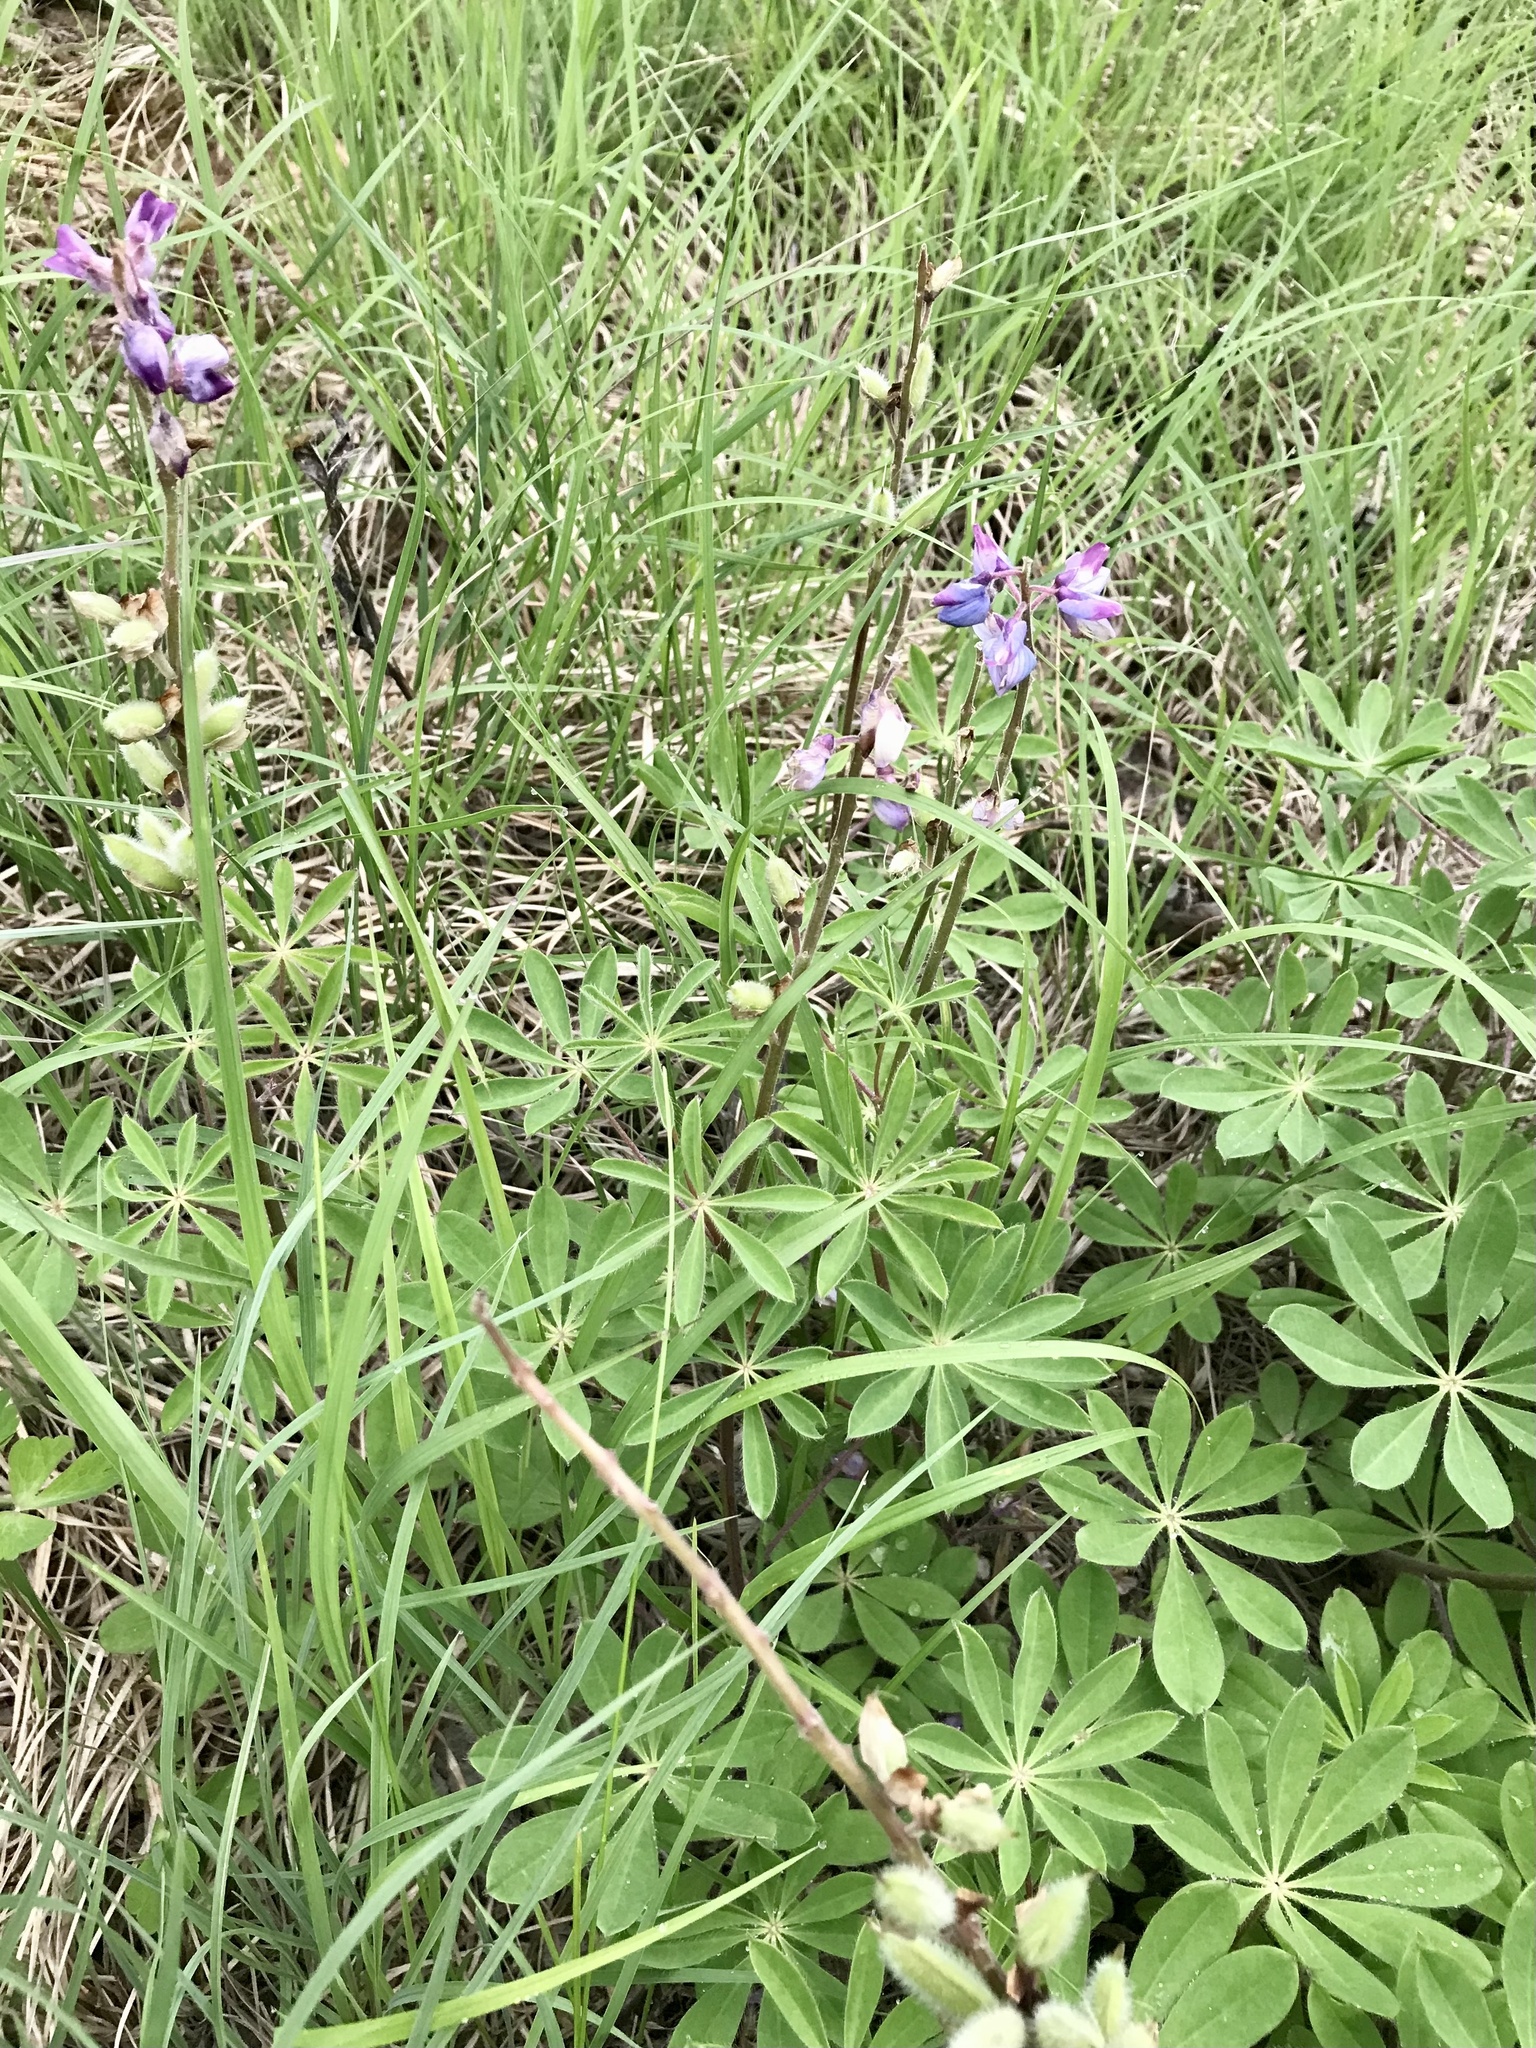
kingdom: Plantae
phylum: Tracheophyta
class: Magnoliopsida
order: Fabales
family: Fabaceae
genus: Lupinus
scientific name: Lupinus perennis
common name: Sundial lupine
